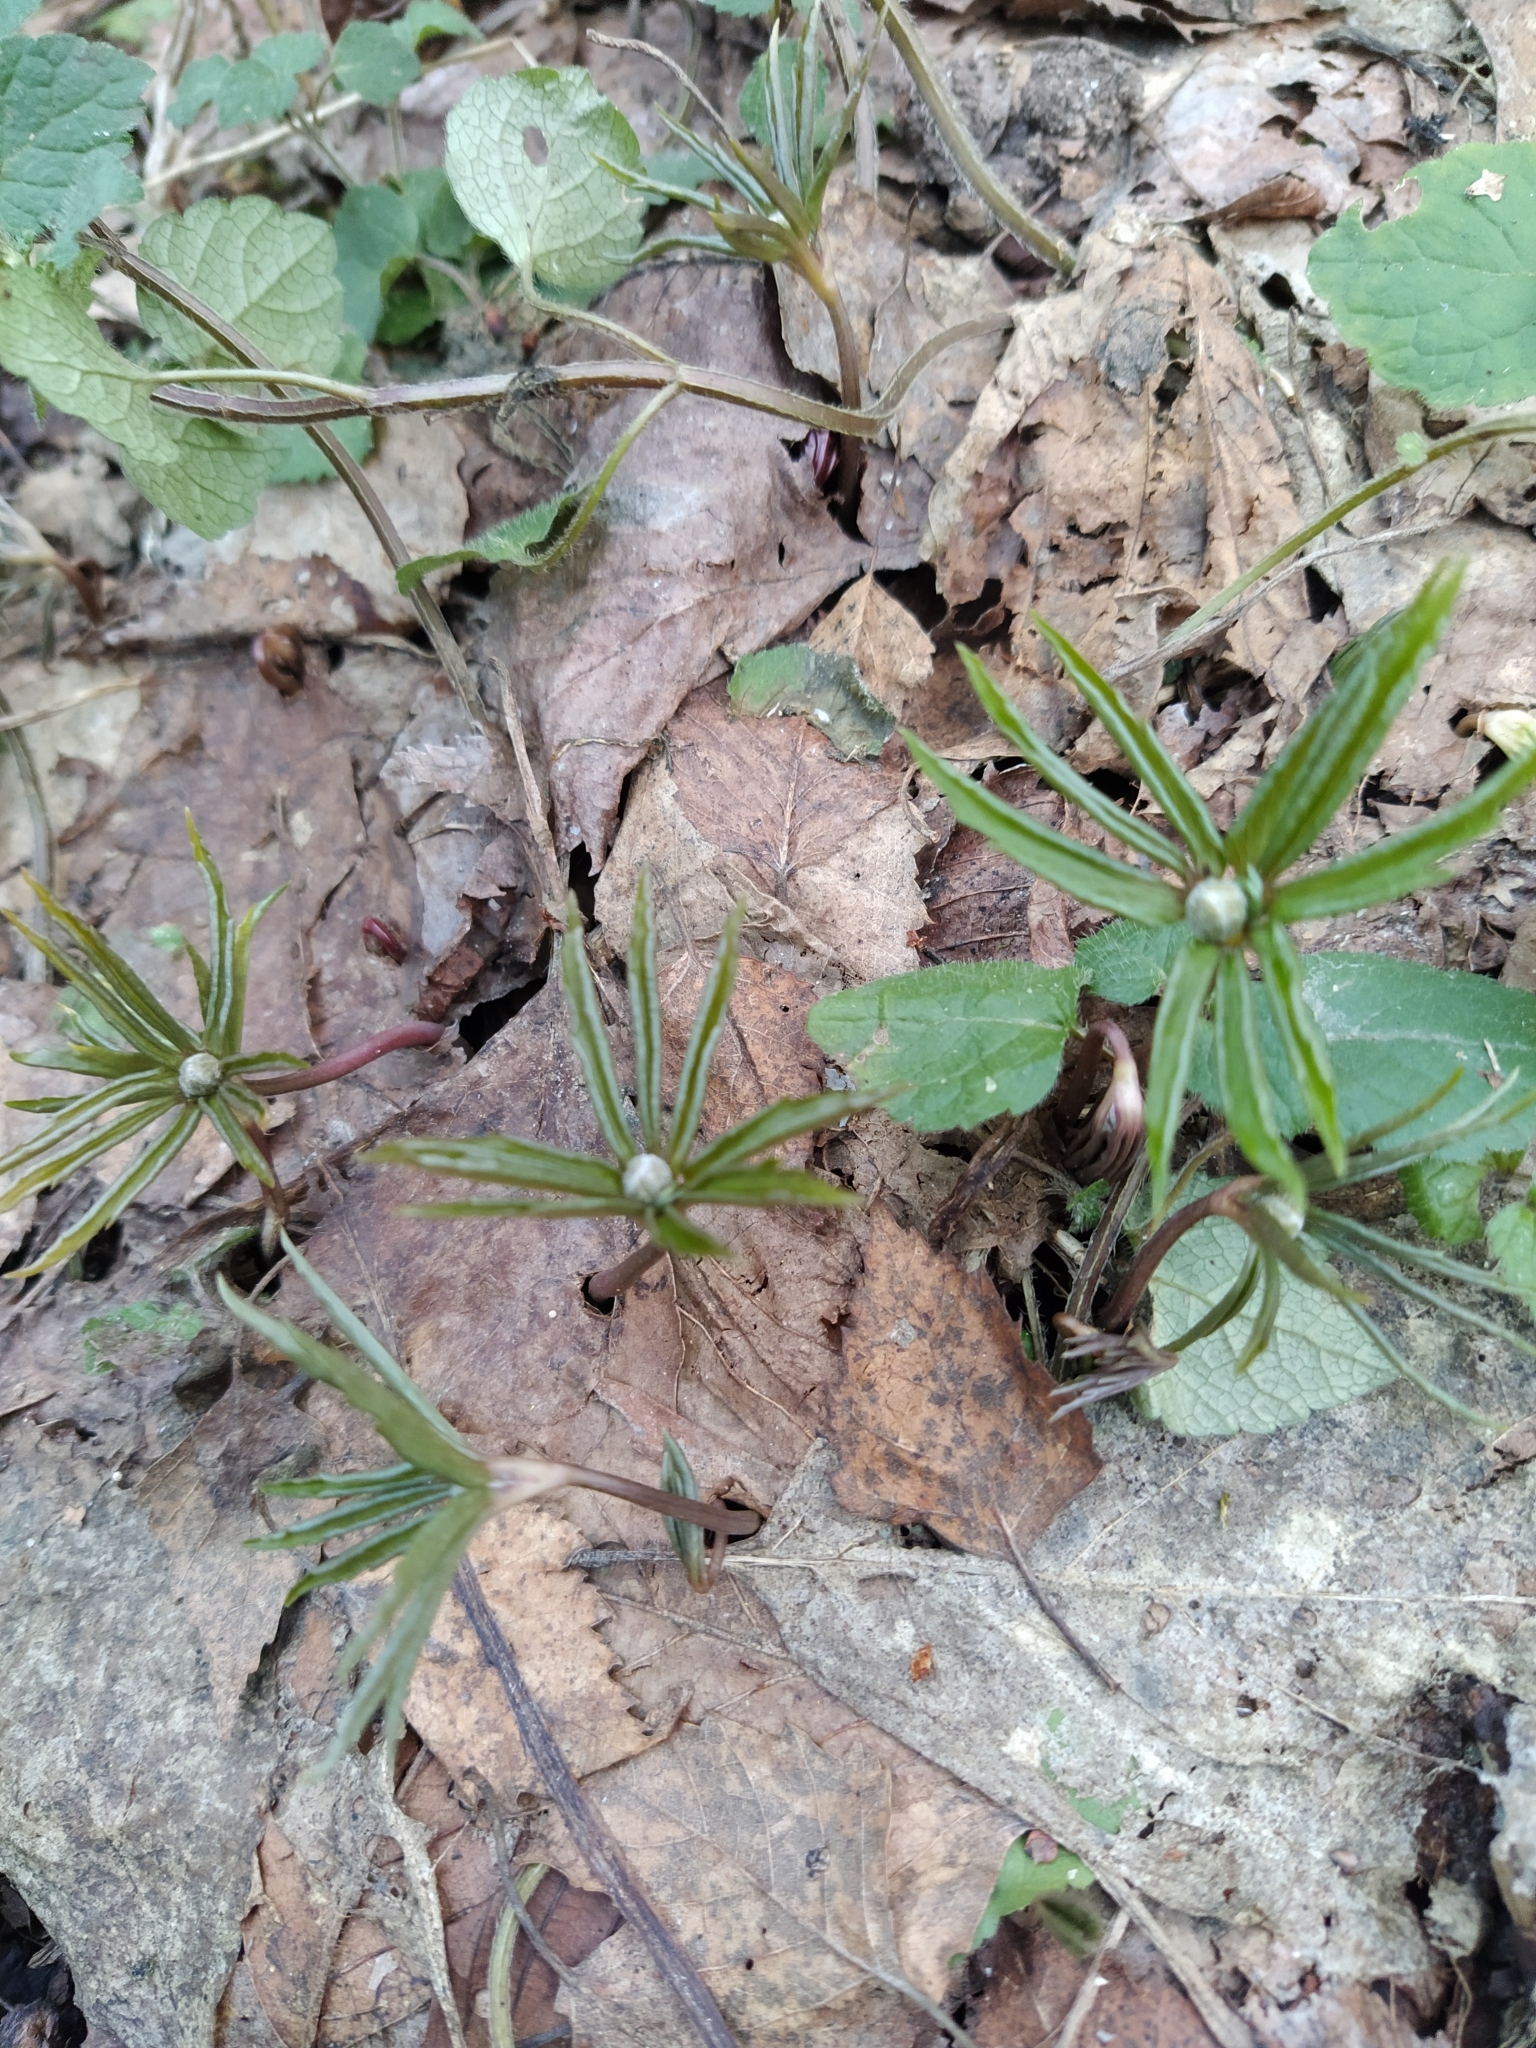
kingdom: Plantae
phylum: Tracheophyta
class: Magnoliopsida
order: Ranunculales
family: Ranunculaceae
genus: Anemone
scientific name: Anemone ranunculoides
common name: Yellow anemone
